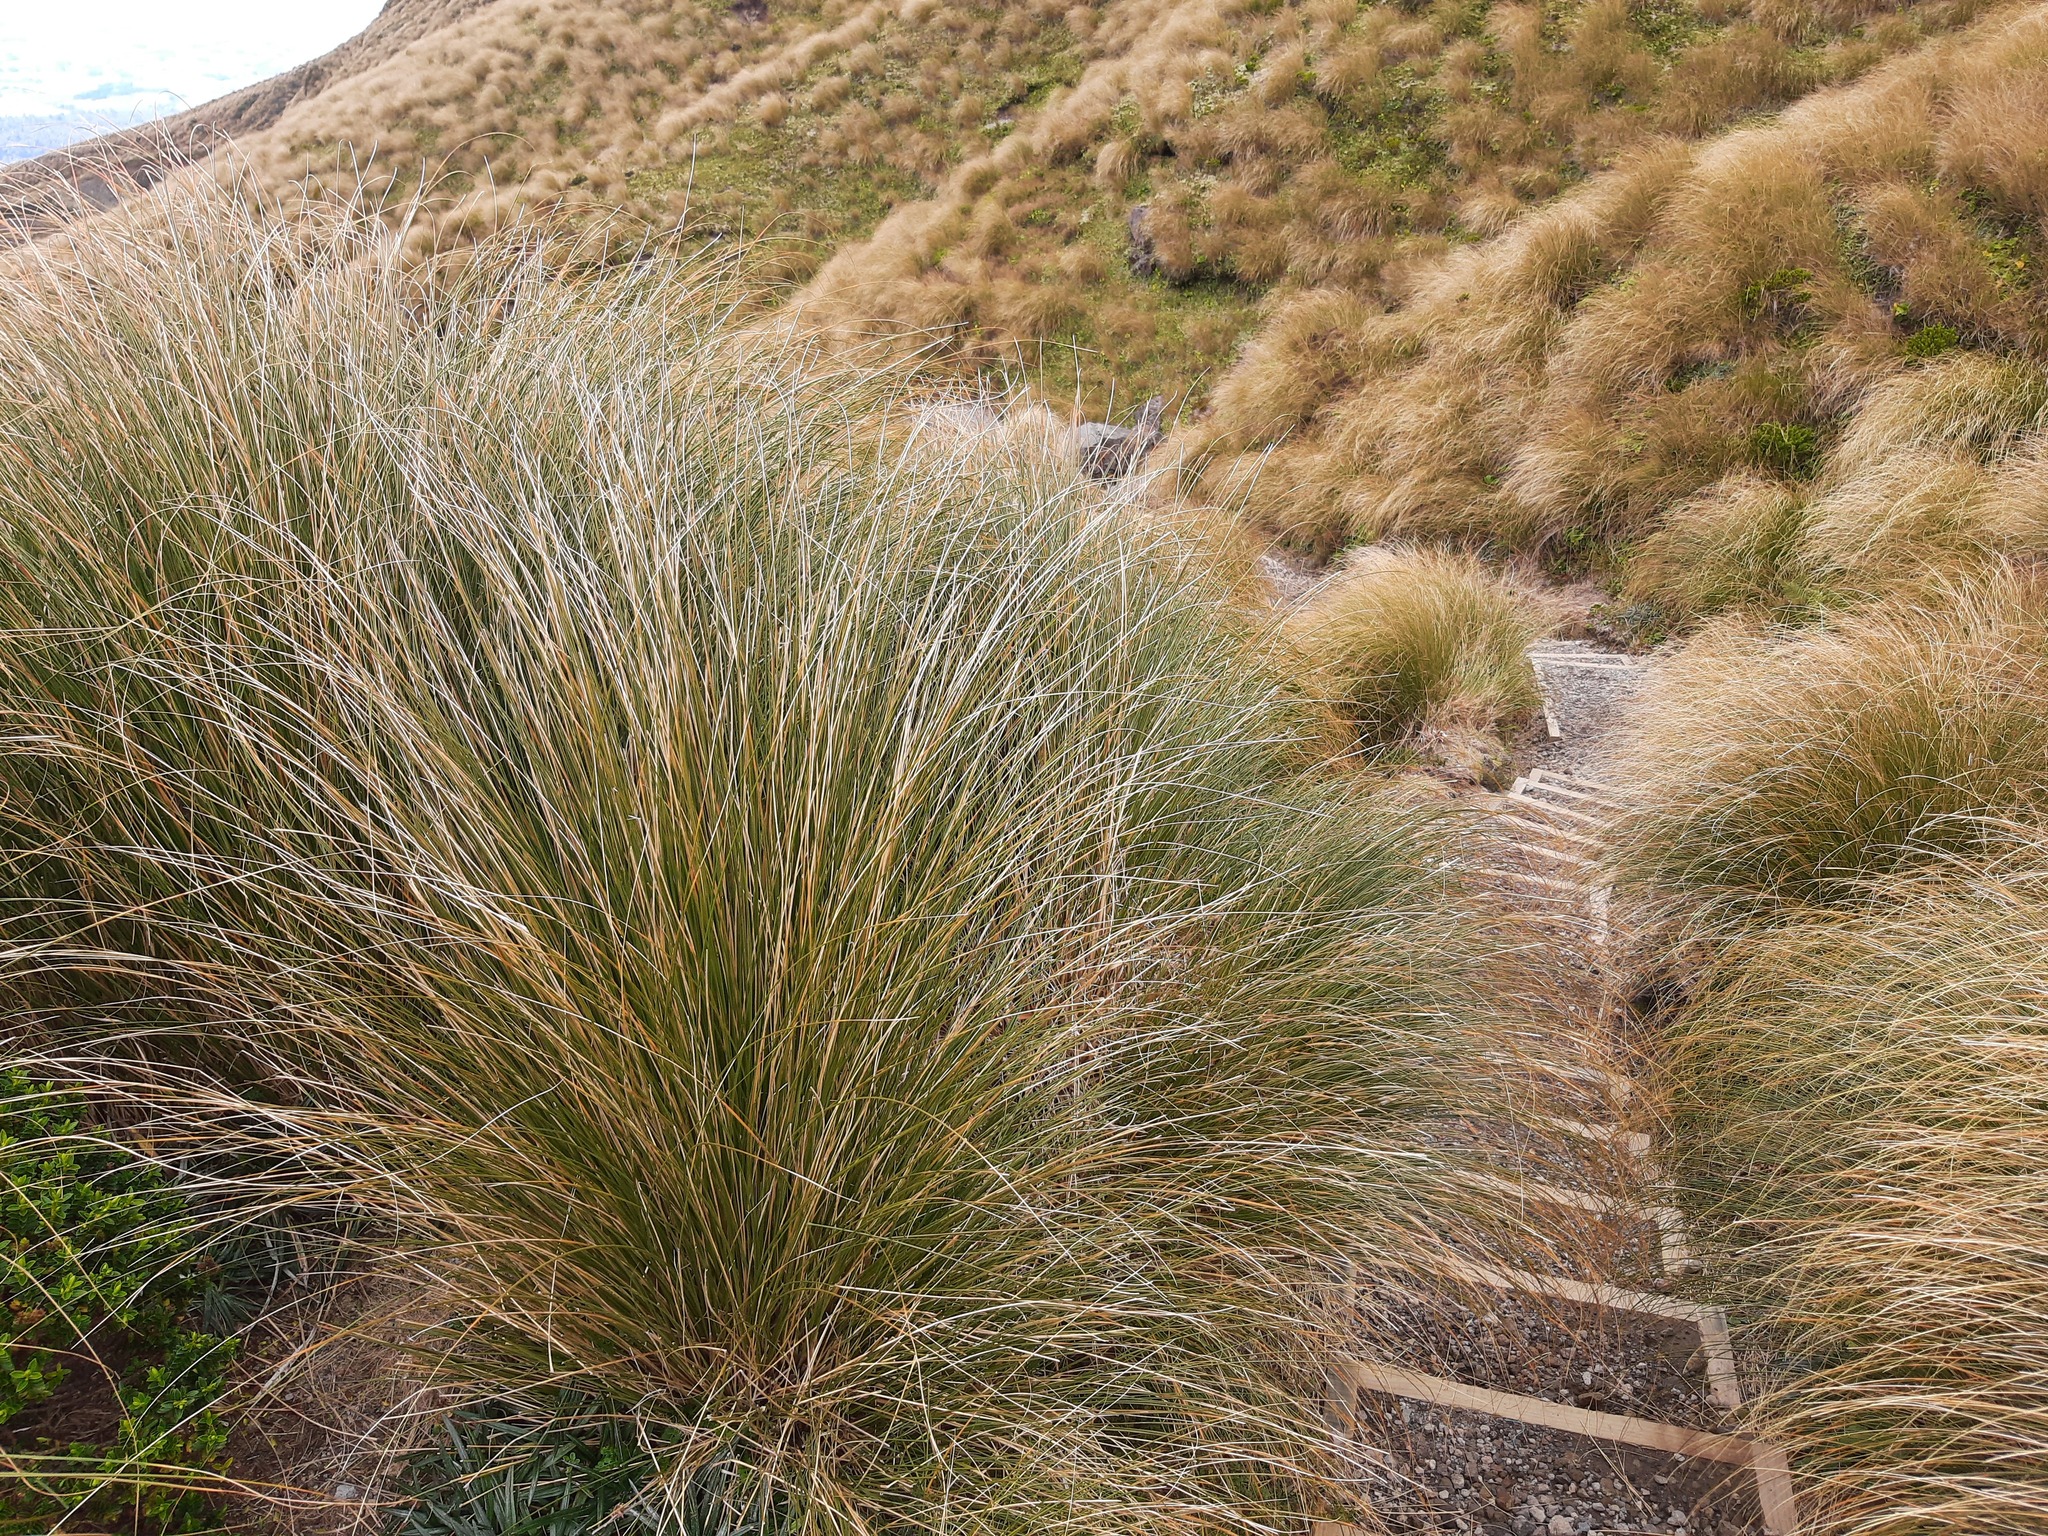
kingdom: Plantae
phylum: Tracheophyta
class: Liliopsida
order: Poales
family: Poaceae
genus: Chionochloa
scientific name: Chionochloa rubra
